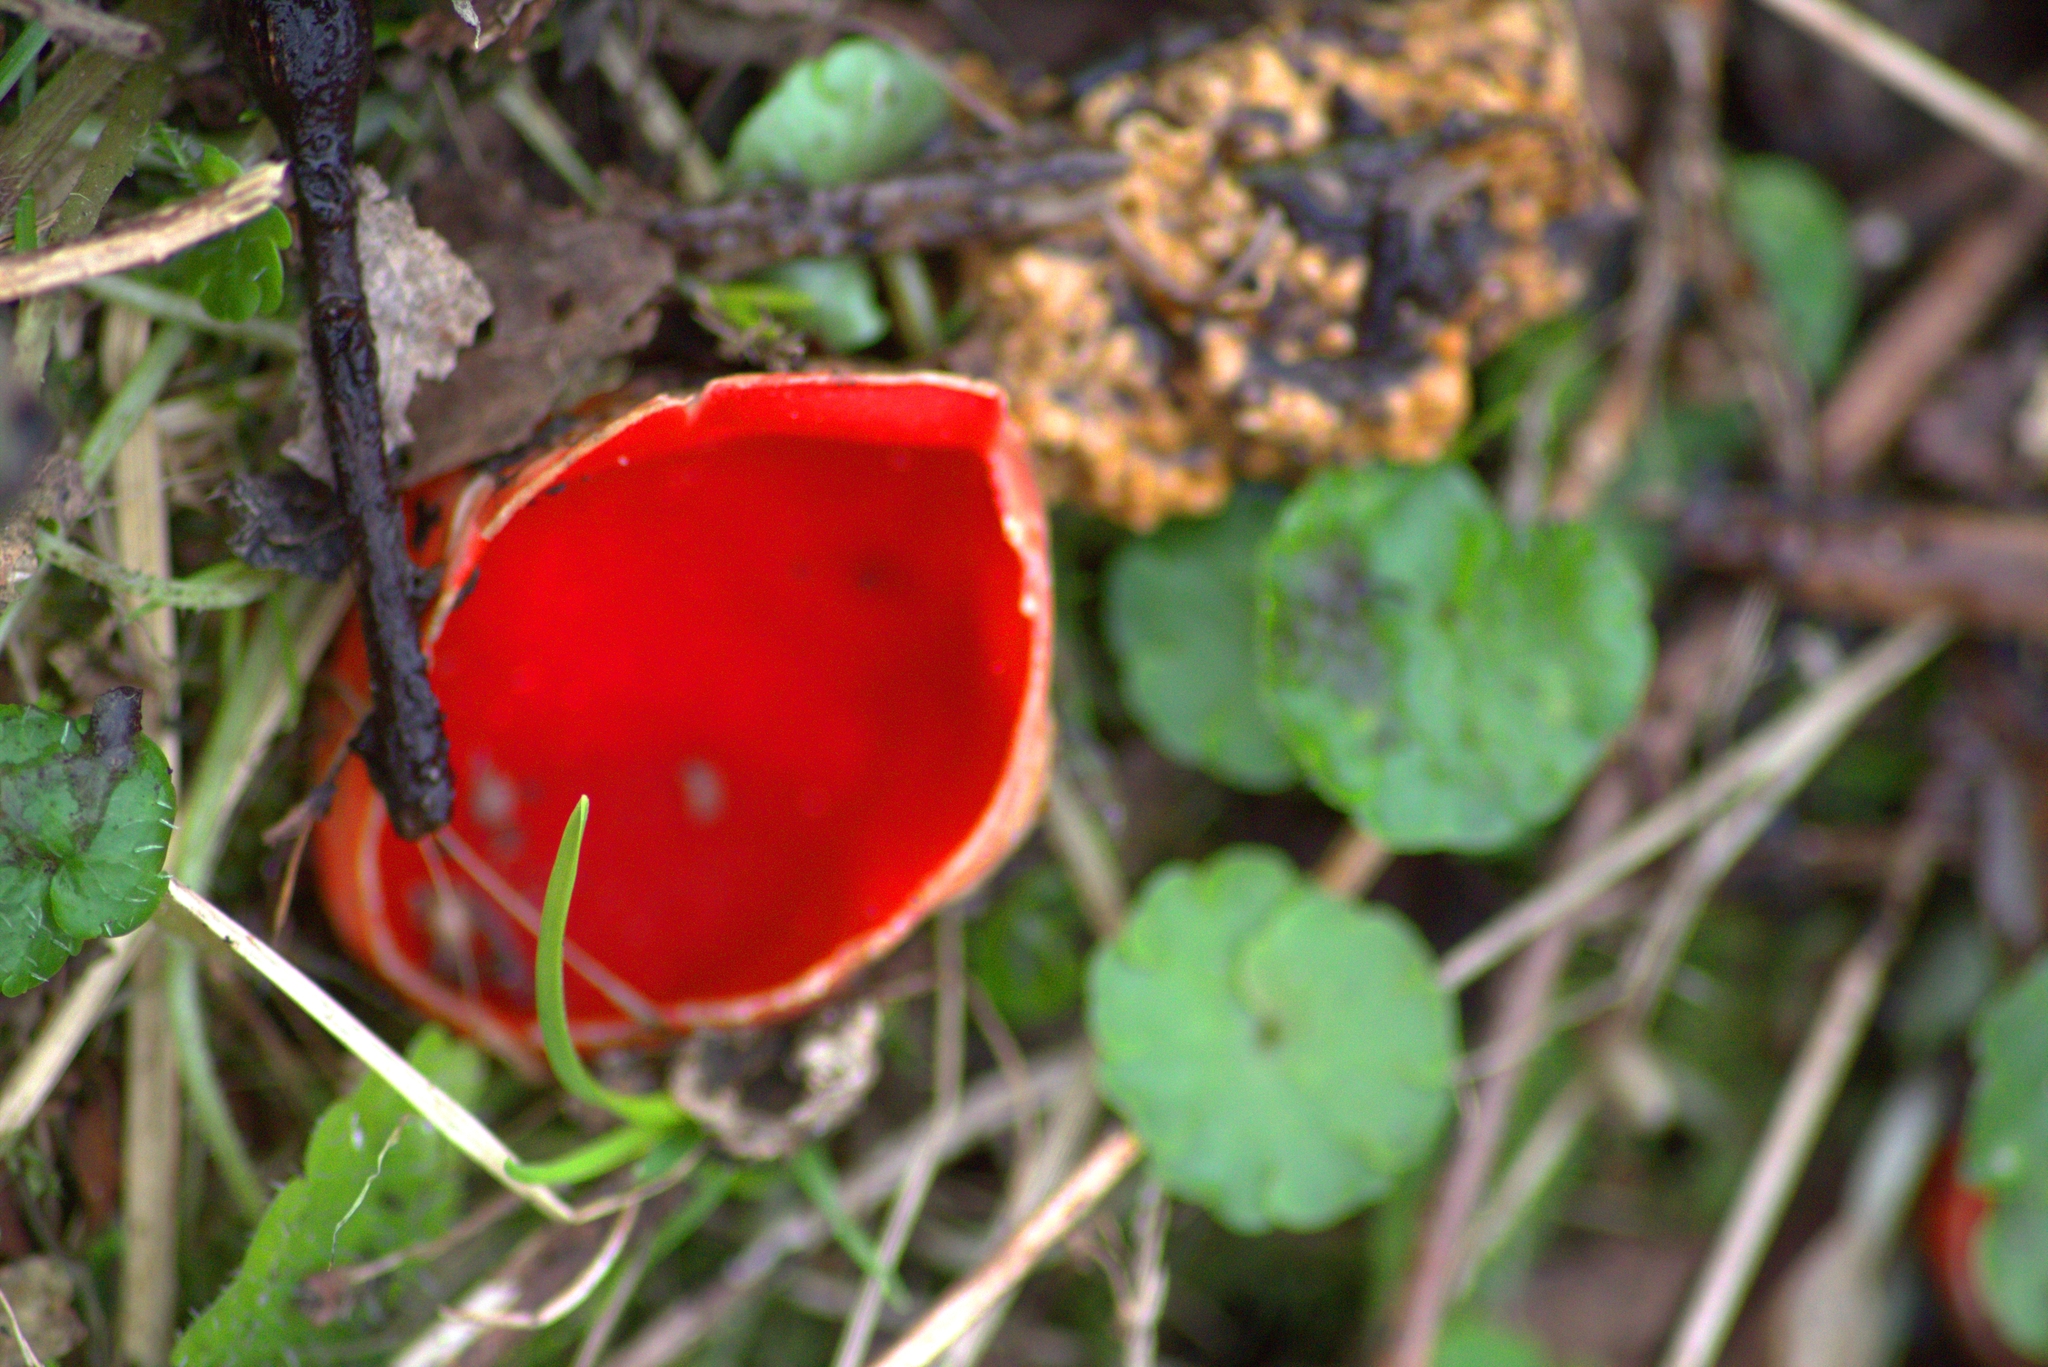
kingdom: Fungi
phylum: Ascomycota
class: Pezizomycetes
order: Pezizales
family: Sarcoscyphaceae
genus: Sarcoscypha
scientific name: Sarcoscypha austriaca
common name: Scarlet elfcup
